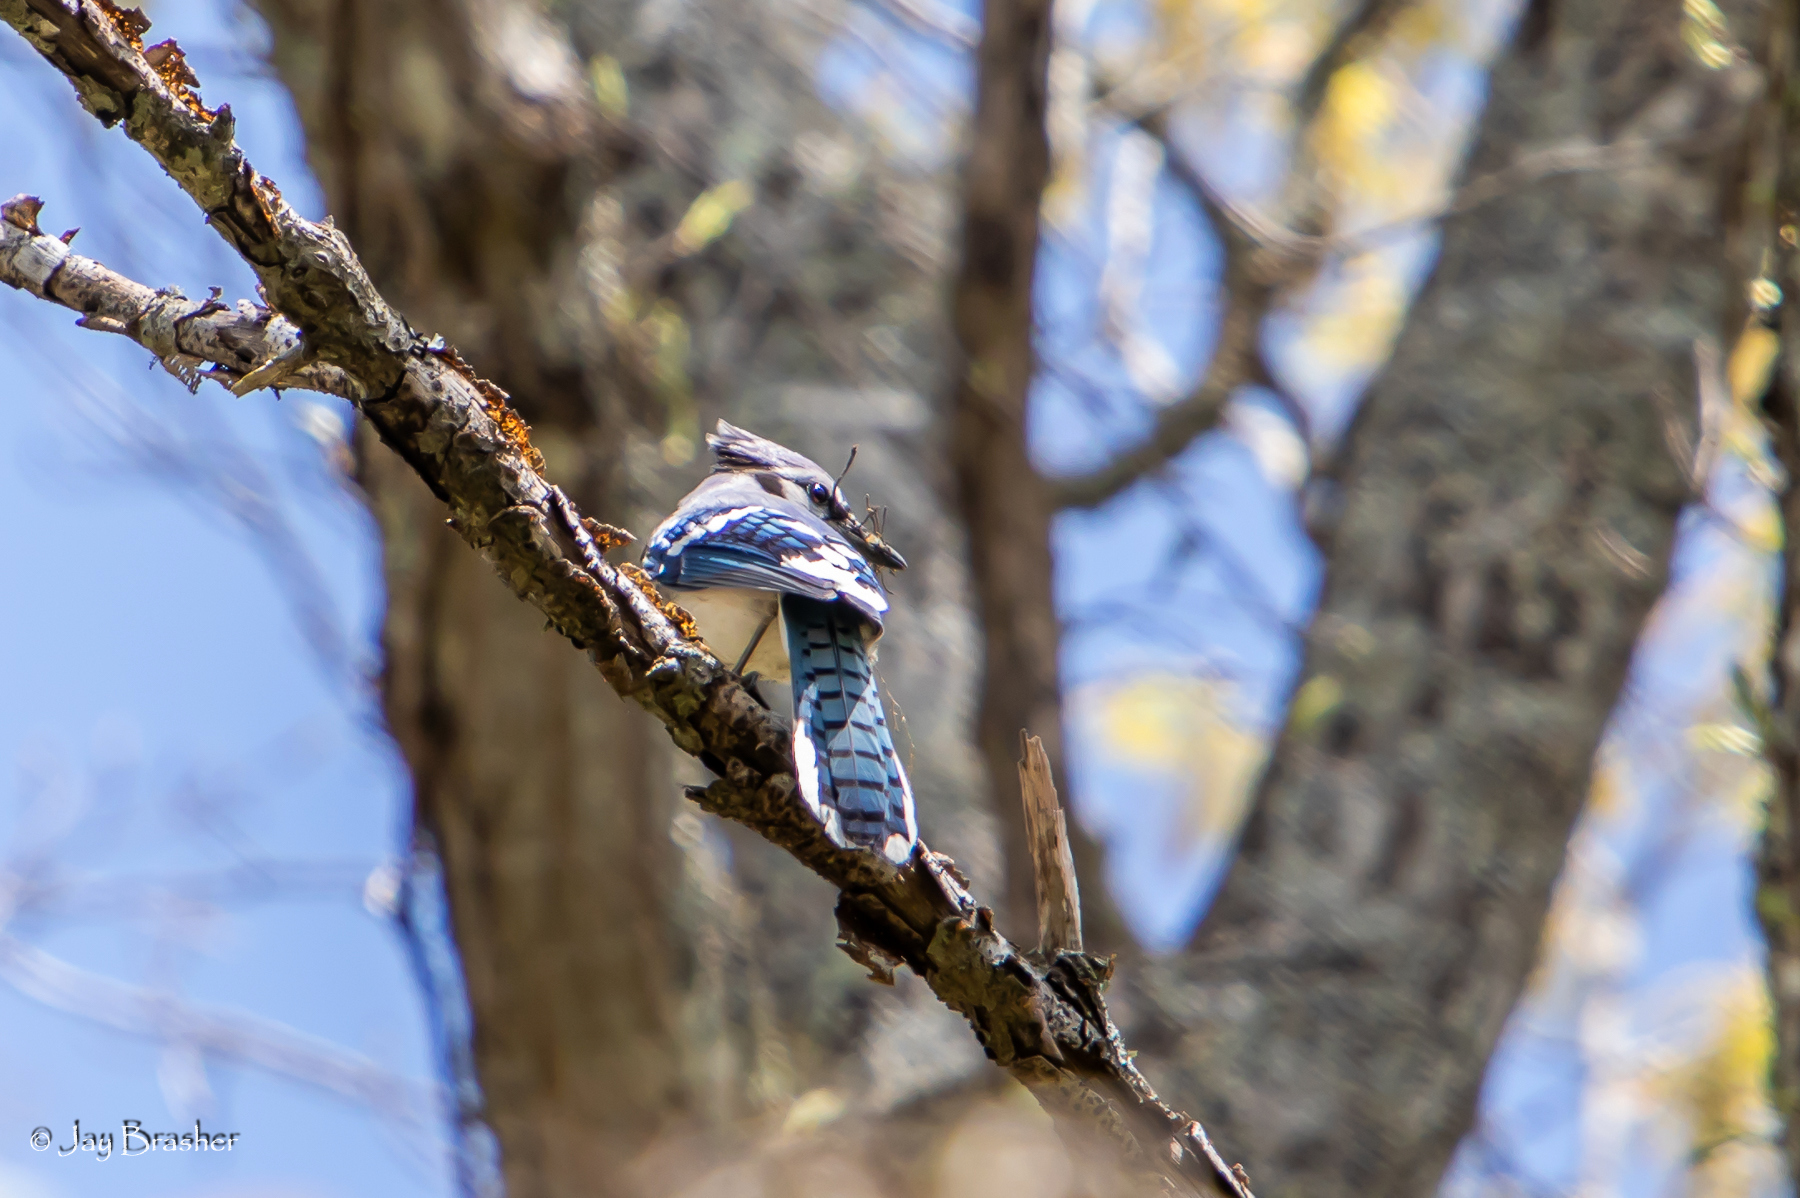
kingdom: Animalia
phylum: Chordata
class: Aves
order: Passeriformes
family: Corvidae
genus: Cyanocitta
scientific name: Cyanocitta cristata
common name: Blue jay
